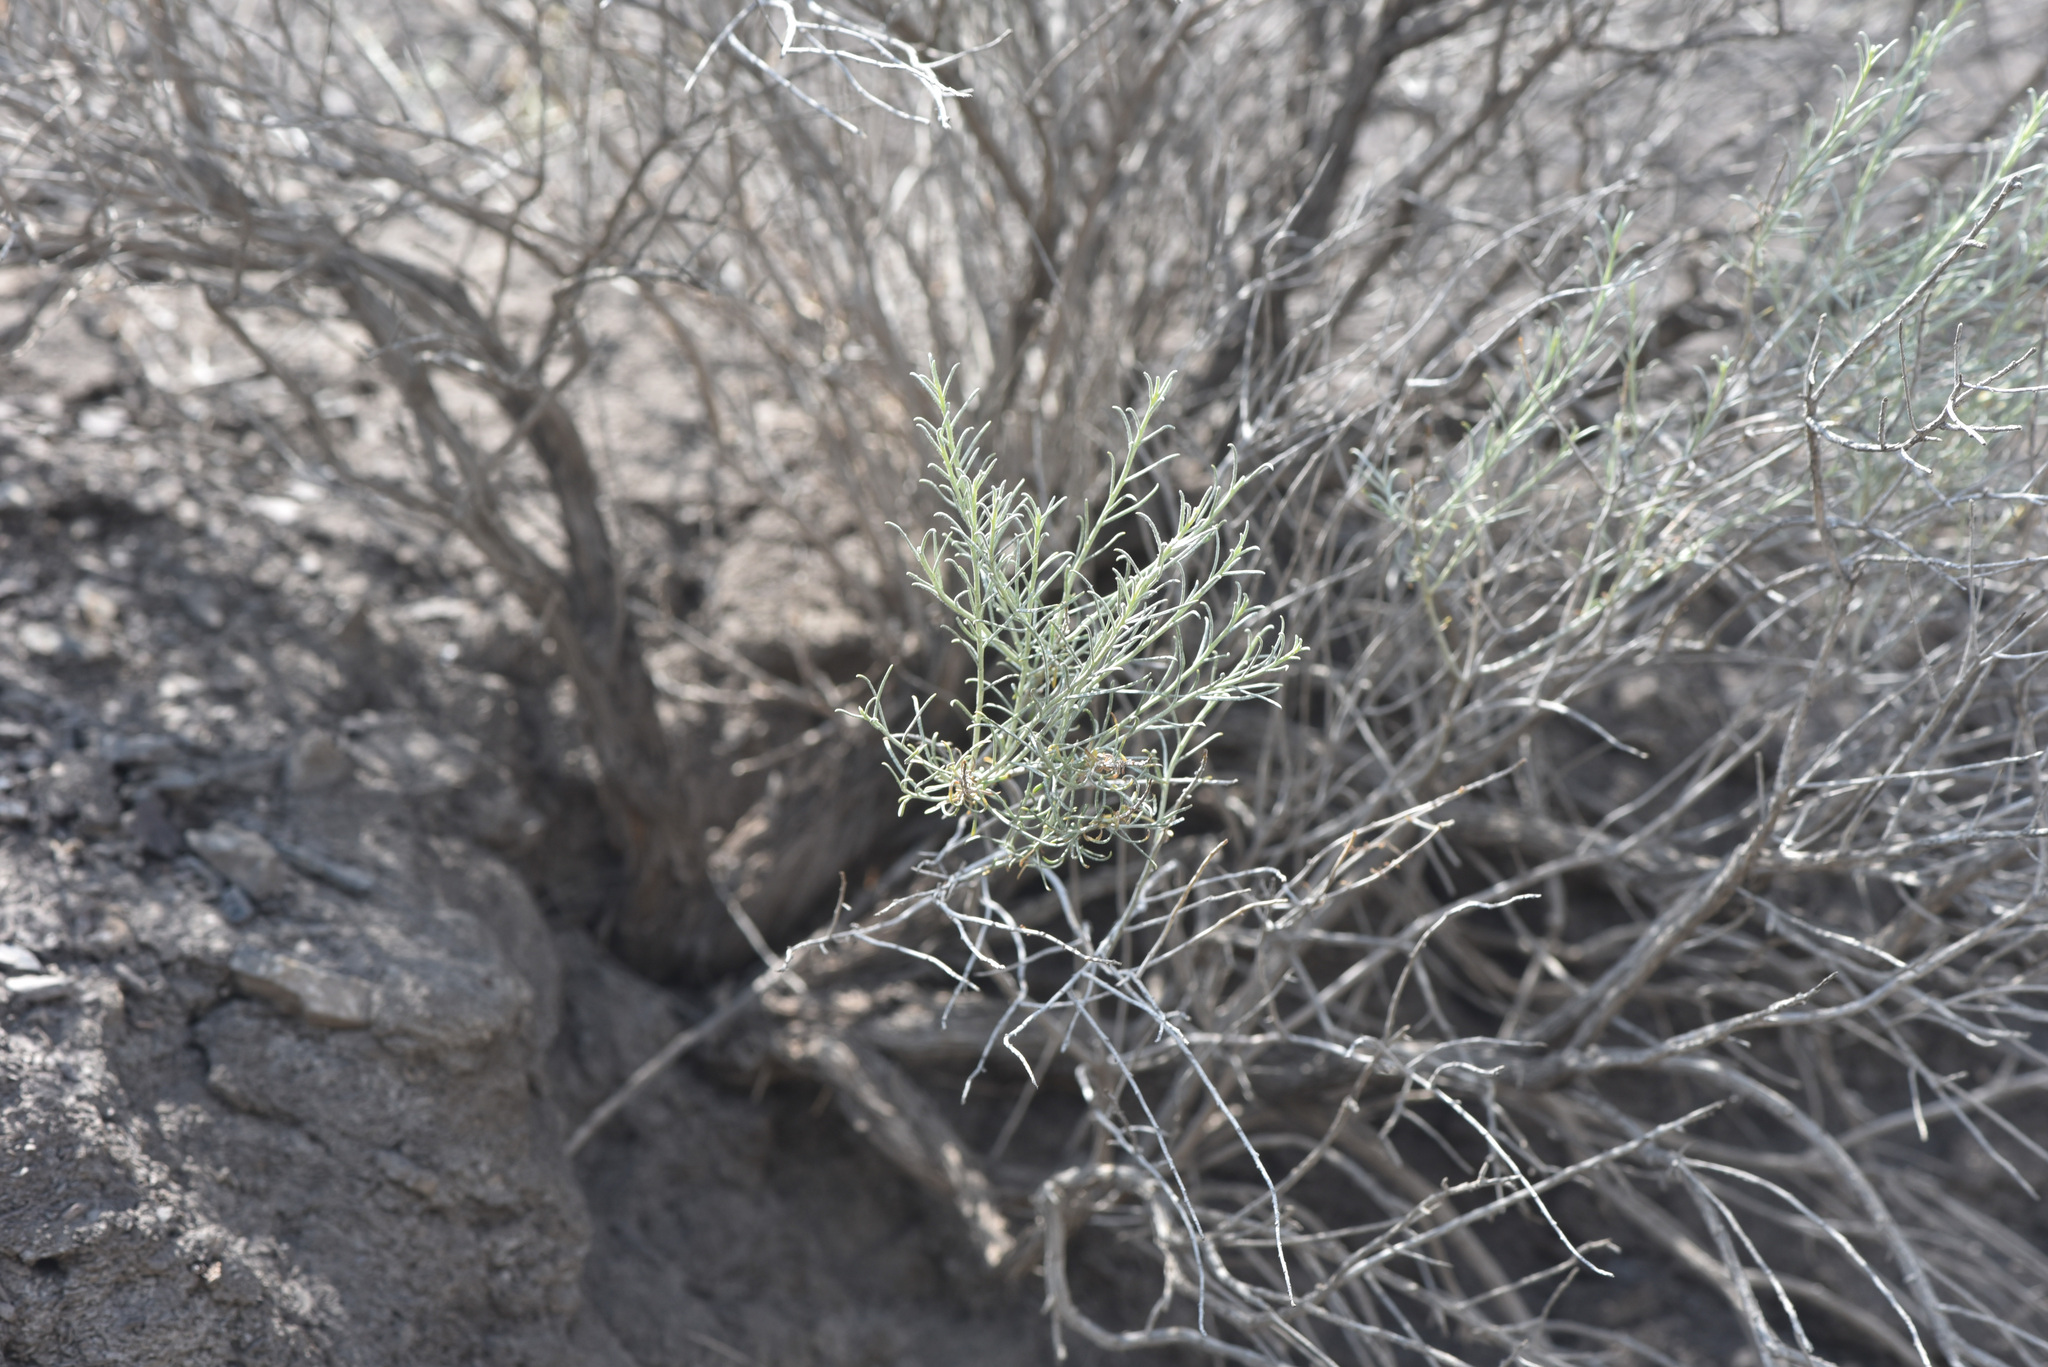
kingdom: Plantae
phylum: Tracheophyta
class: Magnoliopsida
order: Asterales
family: Asteraceae
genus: Ericameria
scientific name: Ericameria nauseosa
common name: Rubber rabbitbrush
